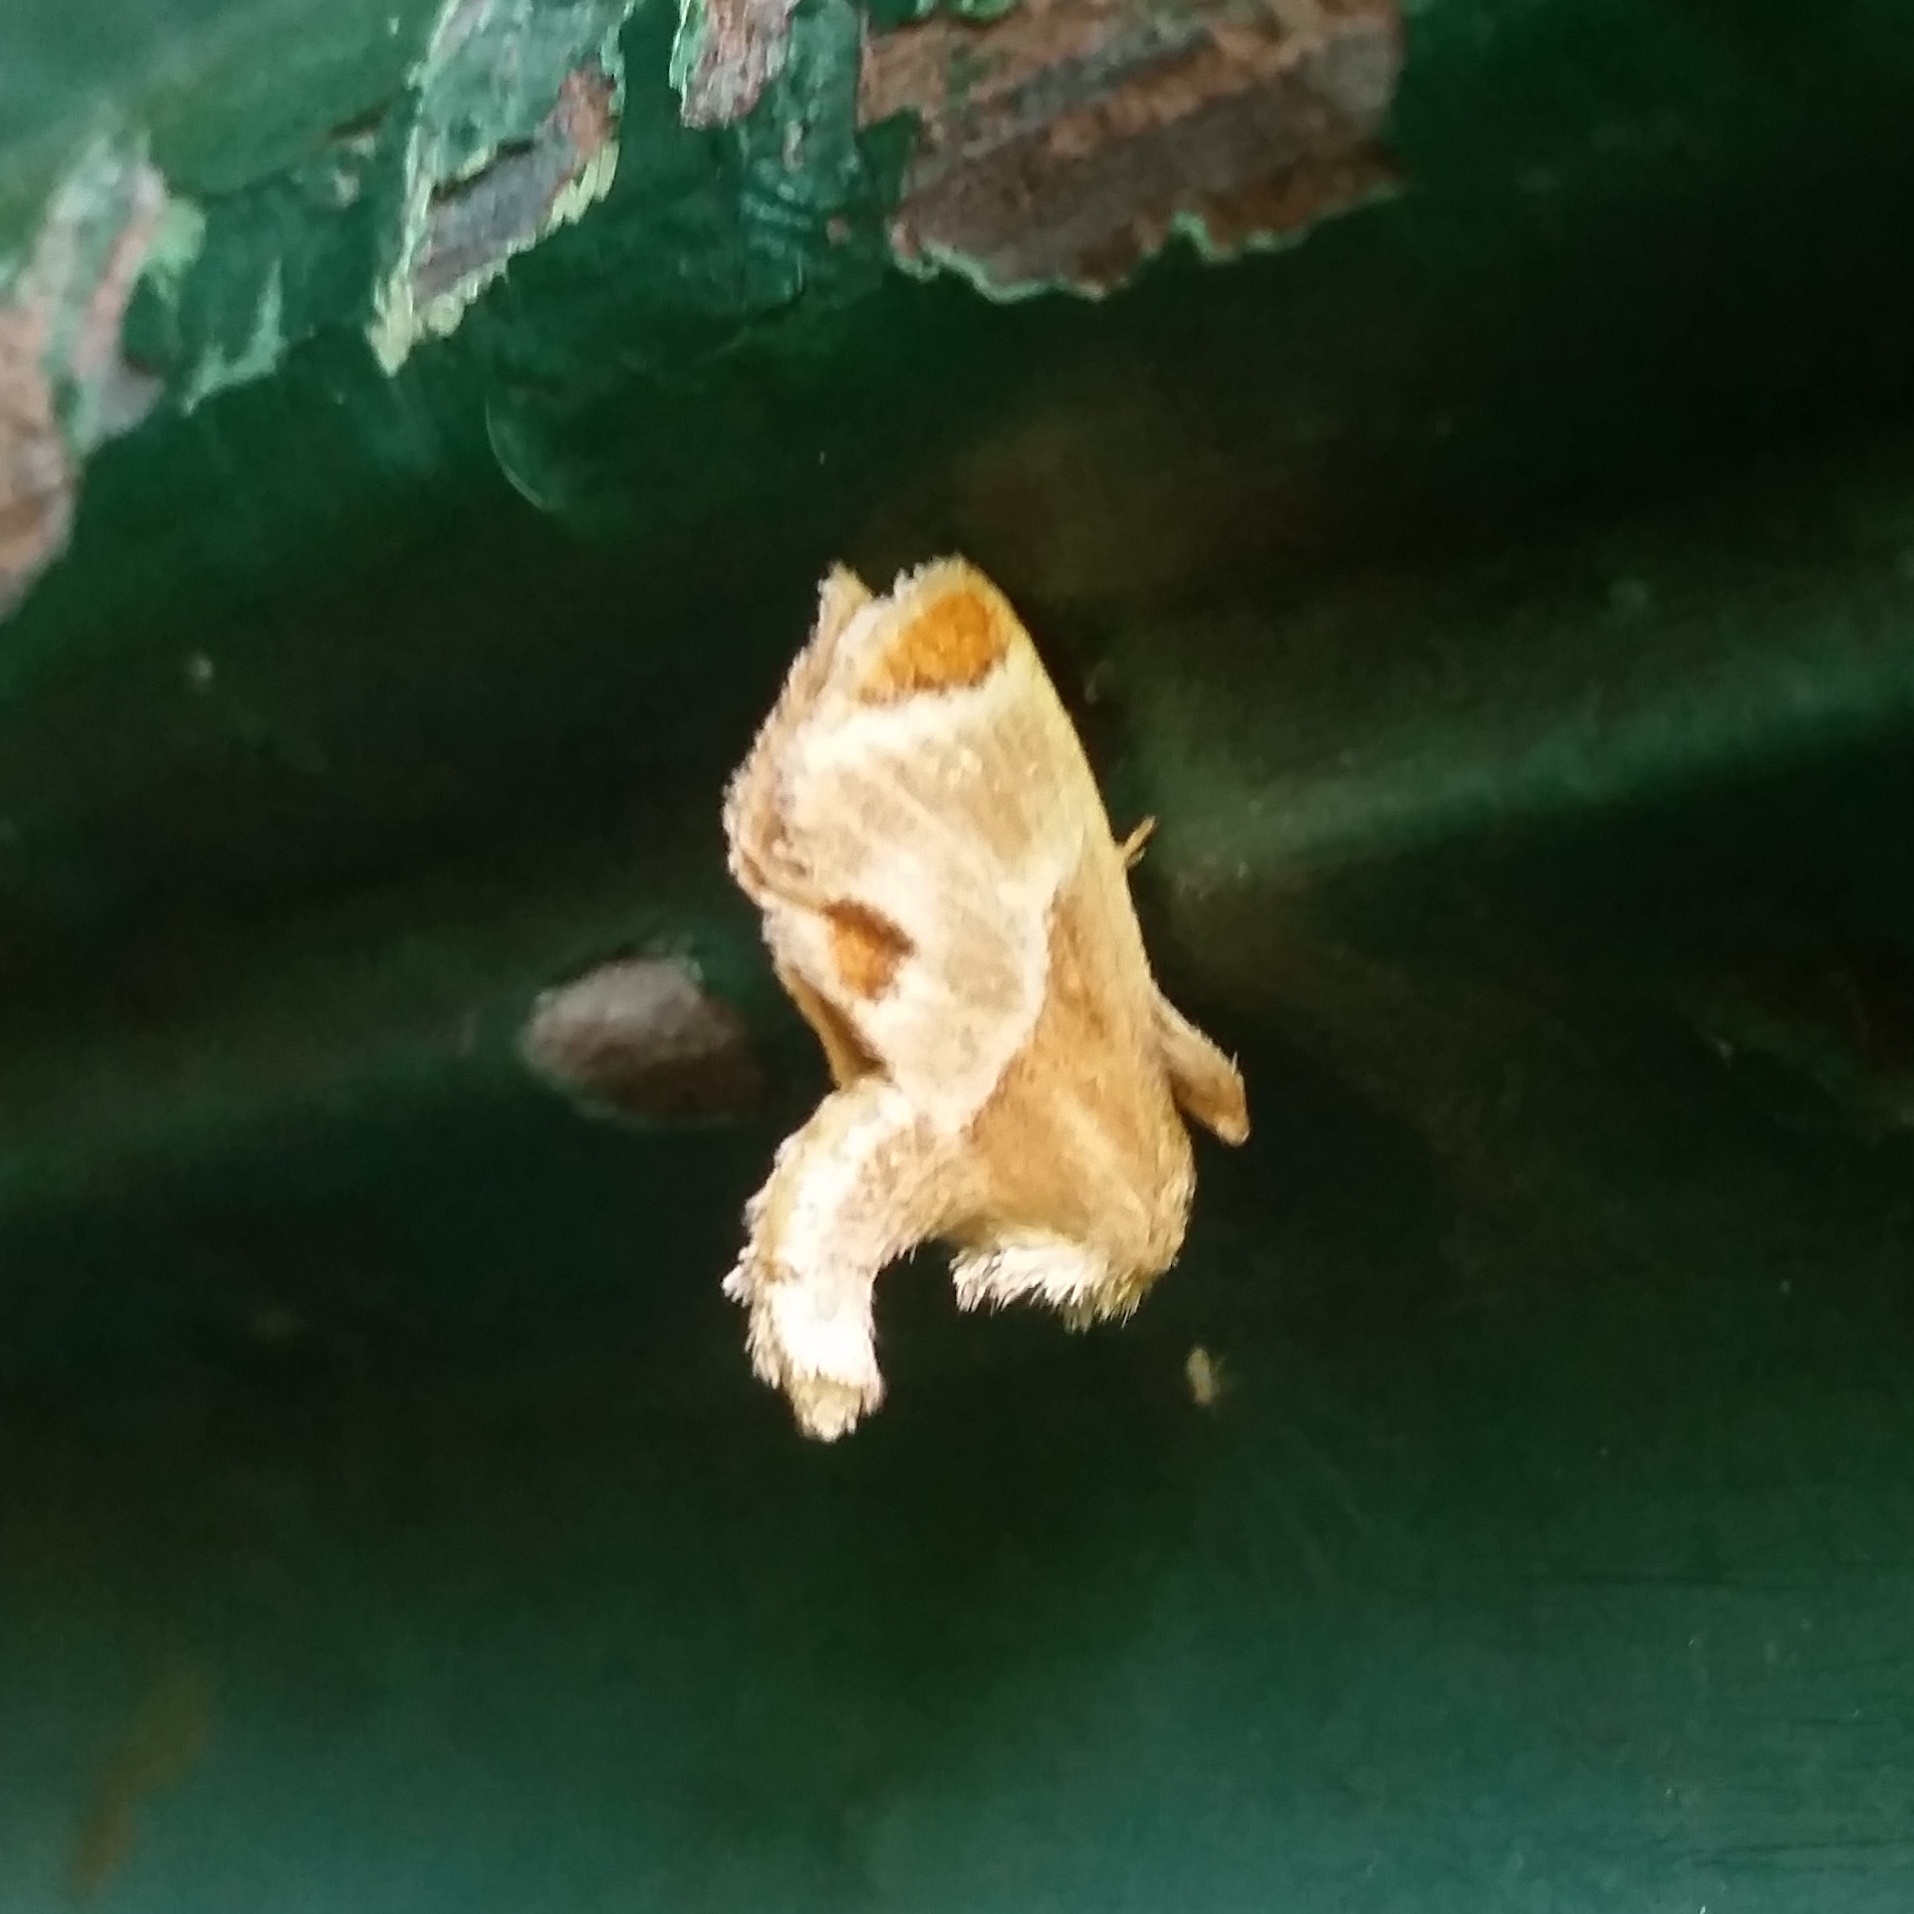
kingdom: Animalia
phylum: Arthropoda
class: Insecta
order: Lepidoptera
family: Limacodidae
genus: Apoda
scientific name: Apoda biguttata
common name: Shagreened slug moth
